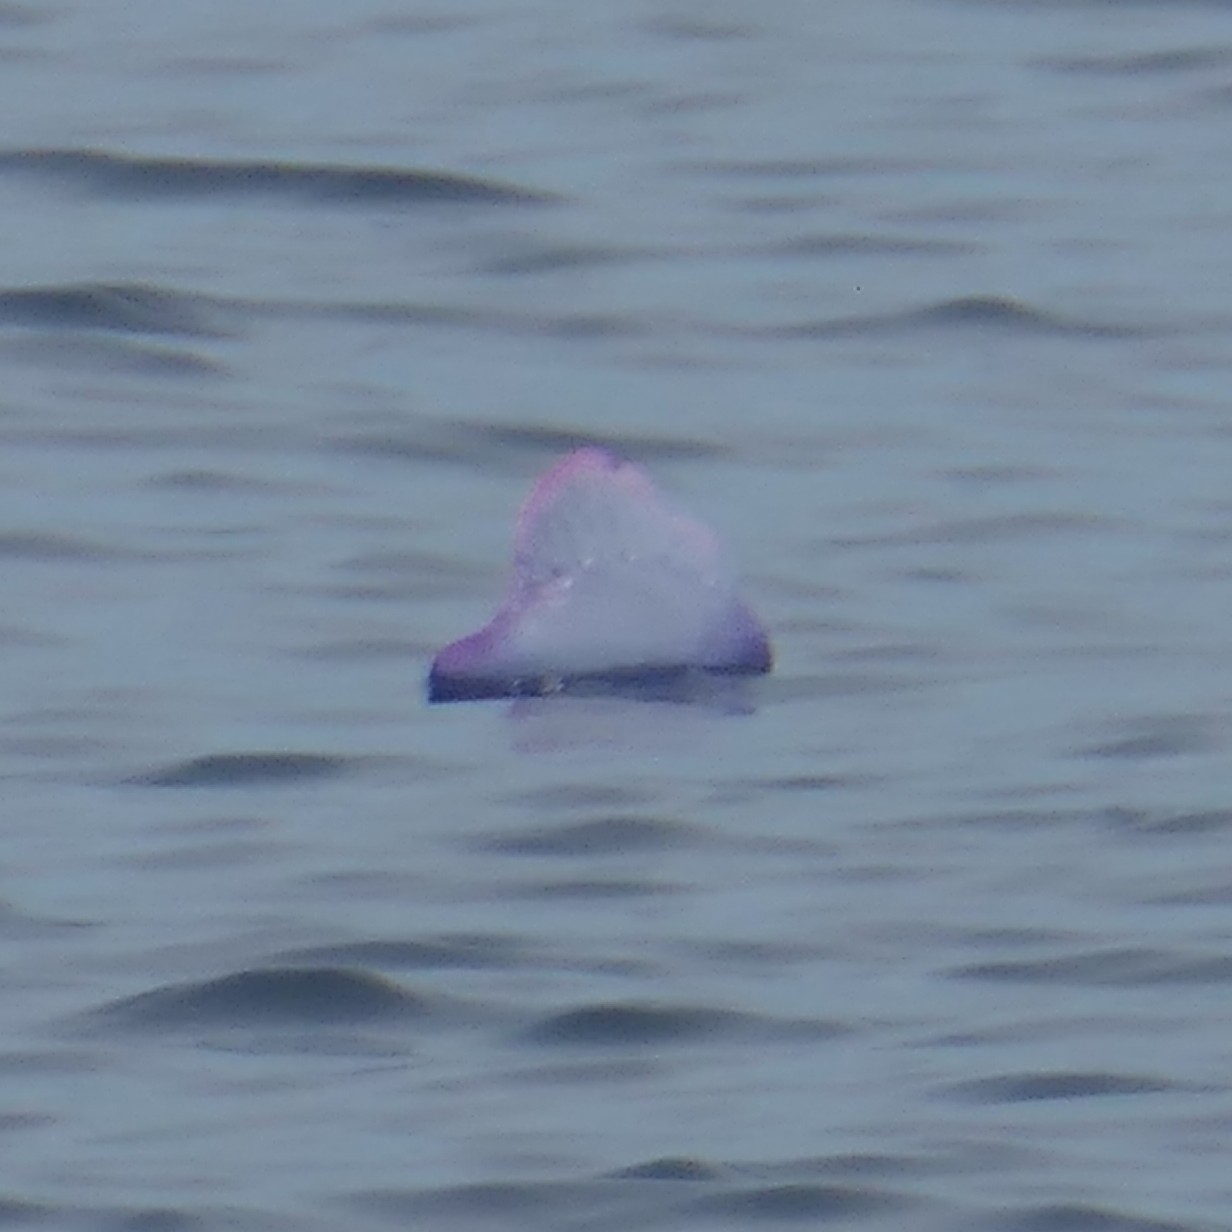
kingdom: Animalia
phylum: Cnidaria
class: Hydrozoa
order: Siphonophorae
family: Physaliidae
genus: Physalia
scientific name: Physalia physalis
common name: Portuguese man-of-war
